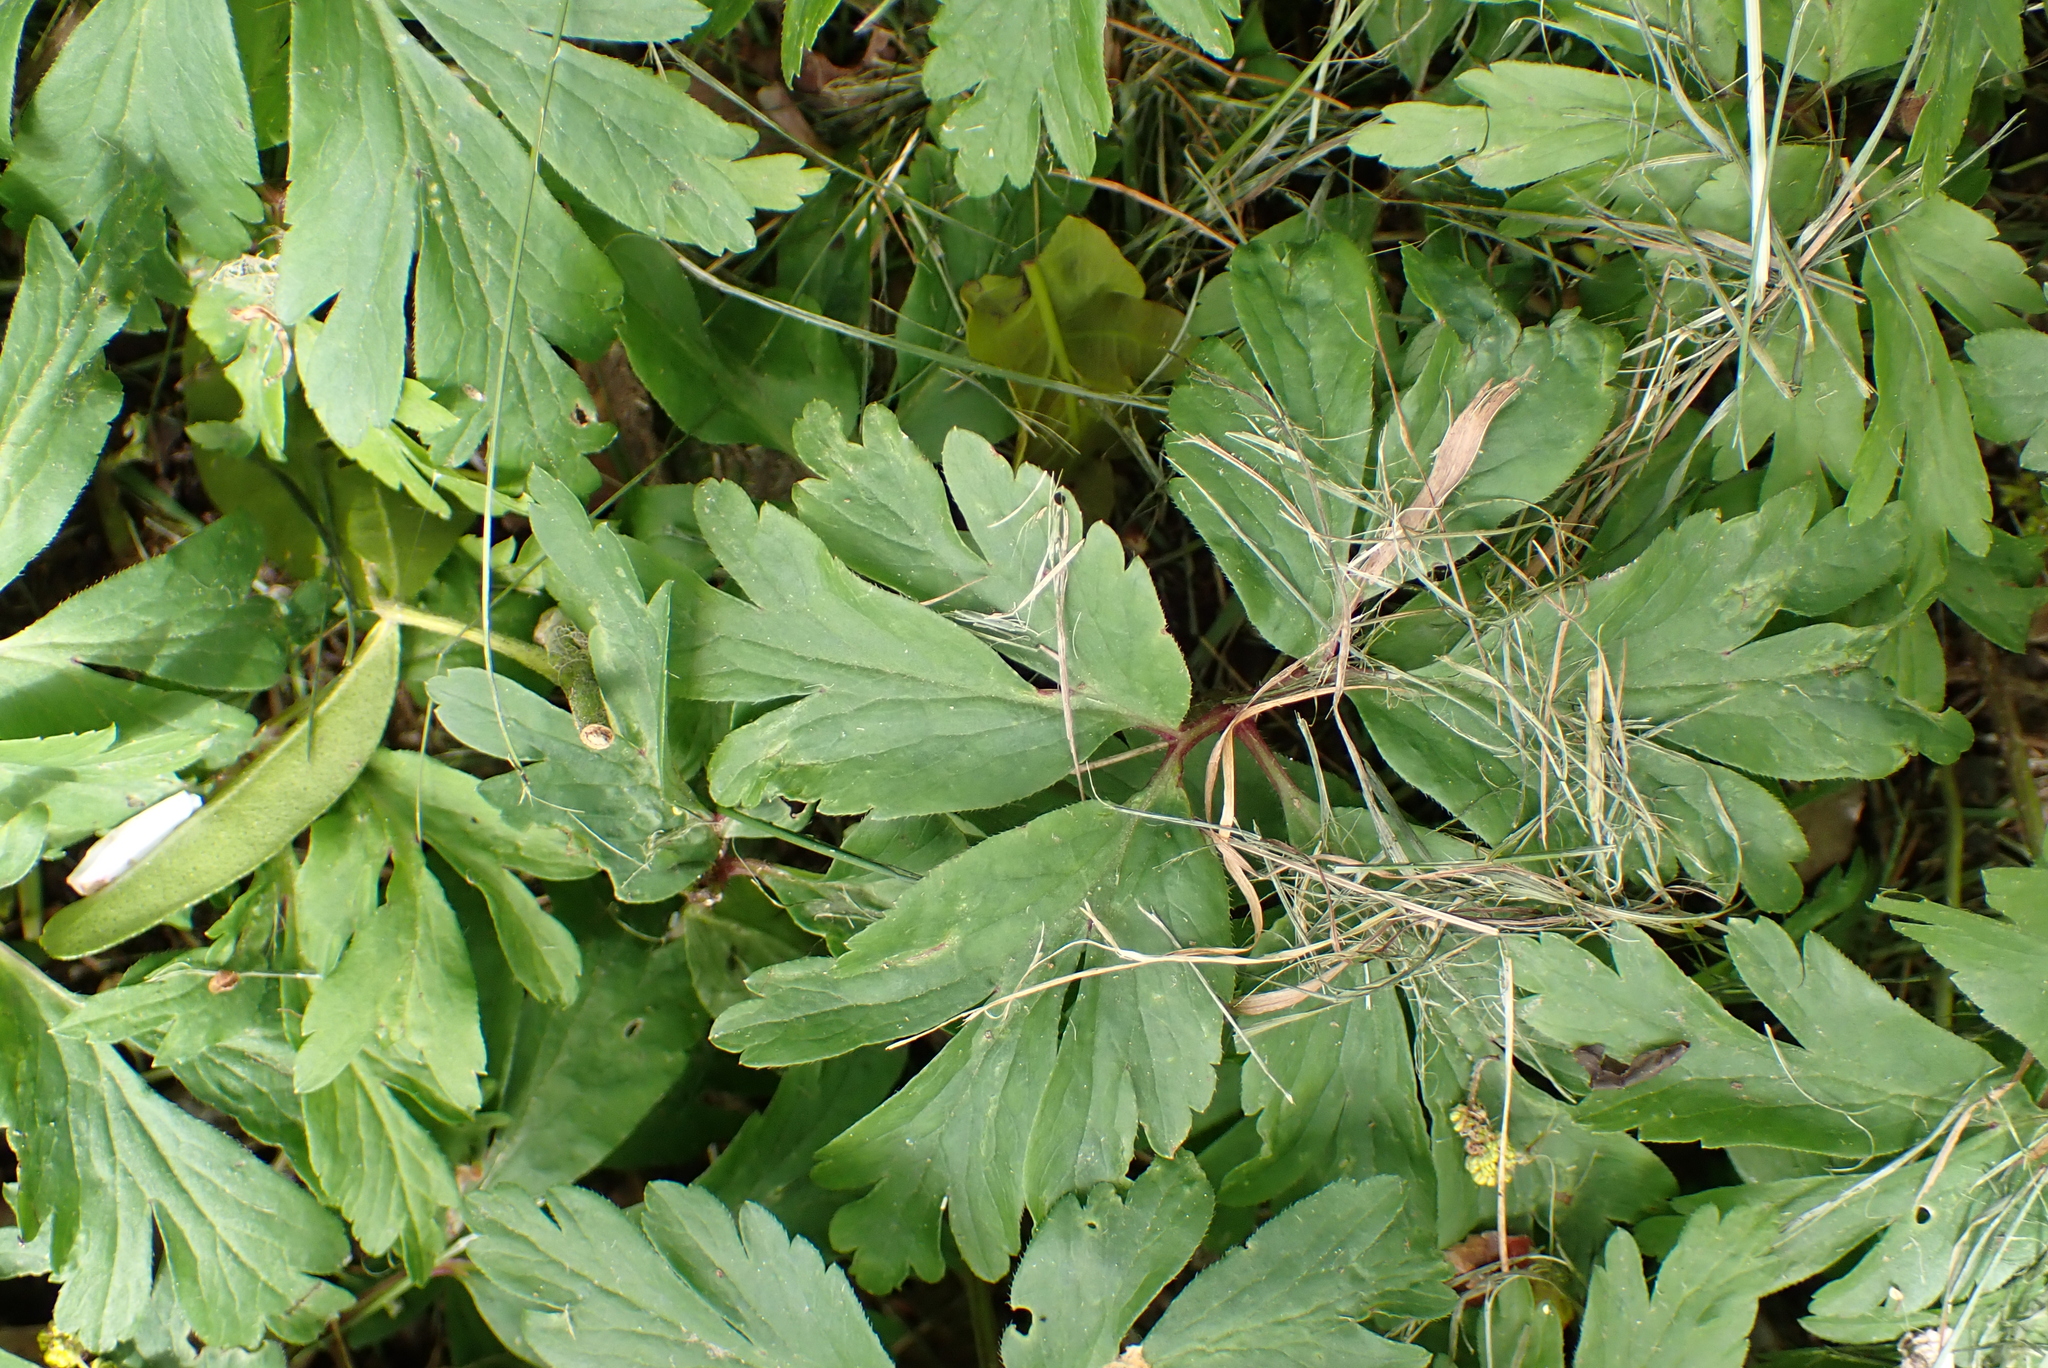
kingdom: Plantae
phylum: Tracheophyta
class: Magnoliopsida
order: Ranunculales
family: Ranunculaceae
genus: Anemone
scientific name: Anemone nemorosa
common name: Wood anemone
